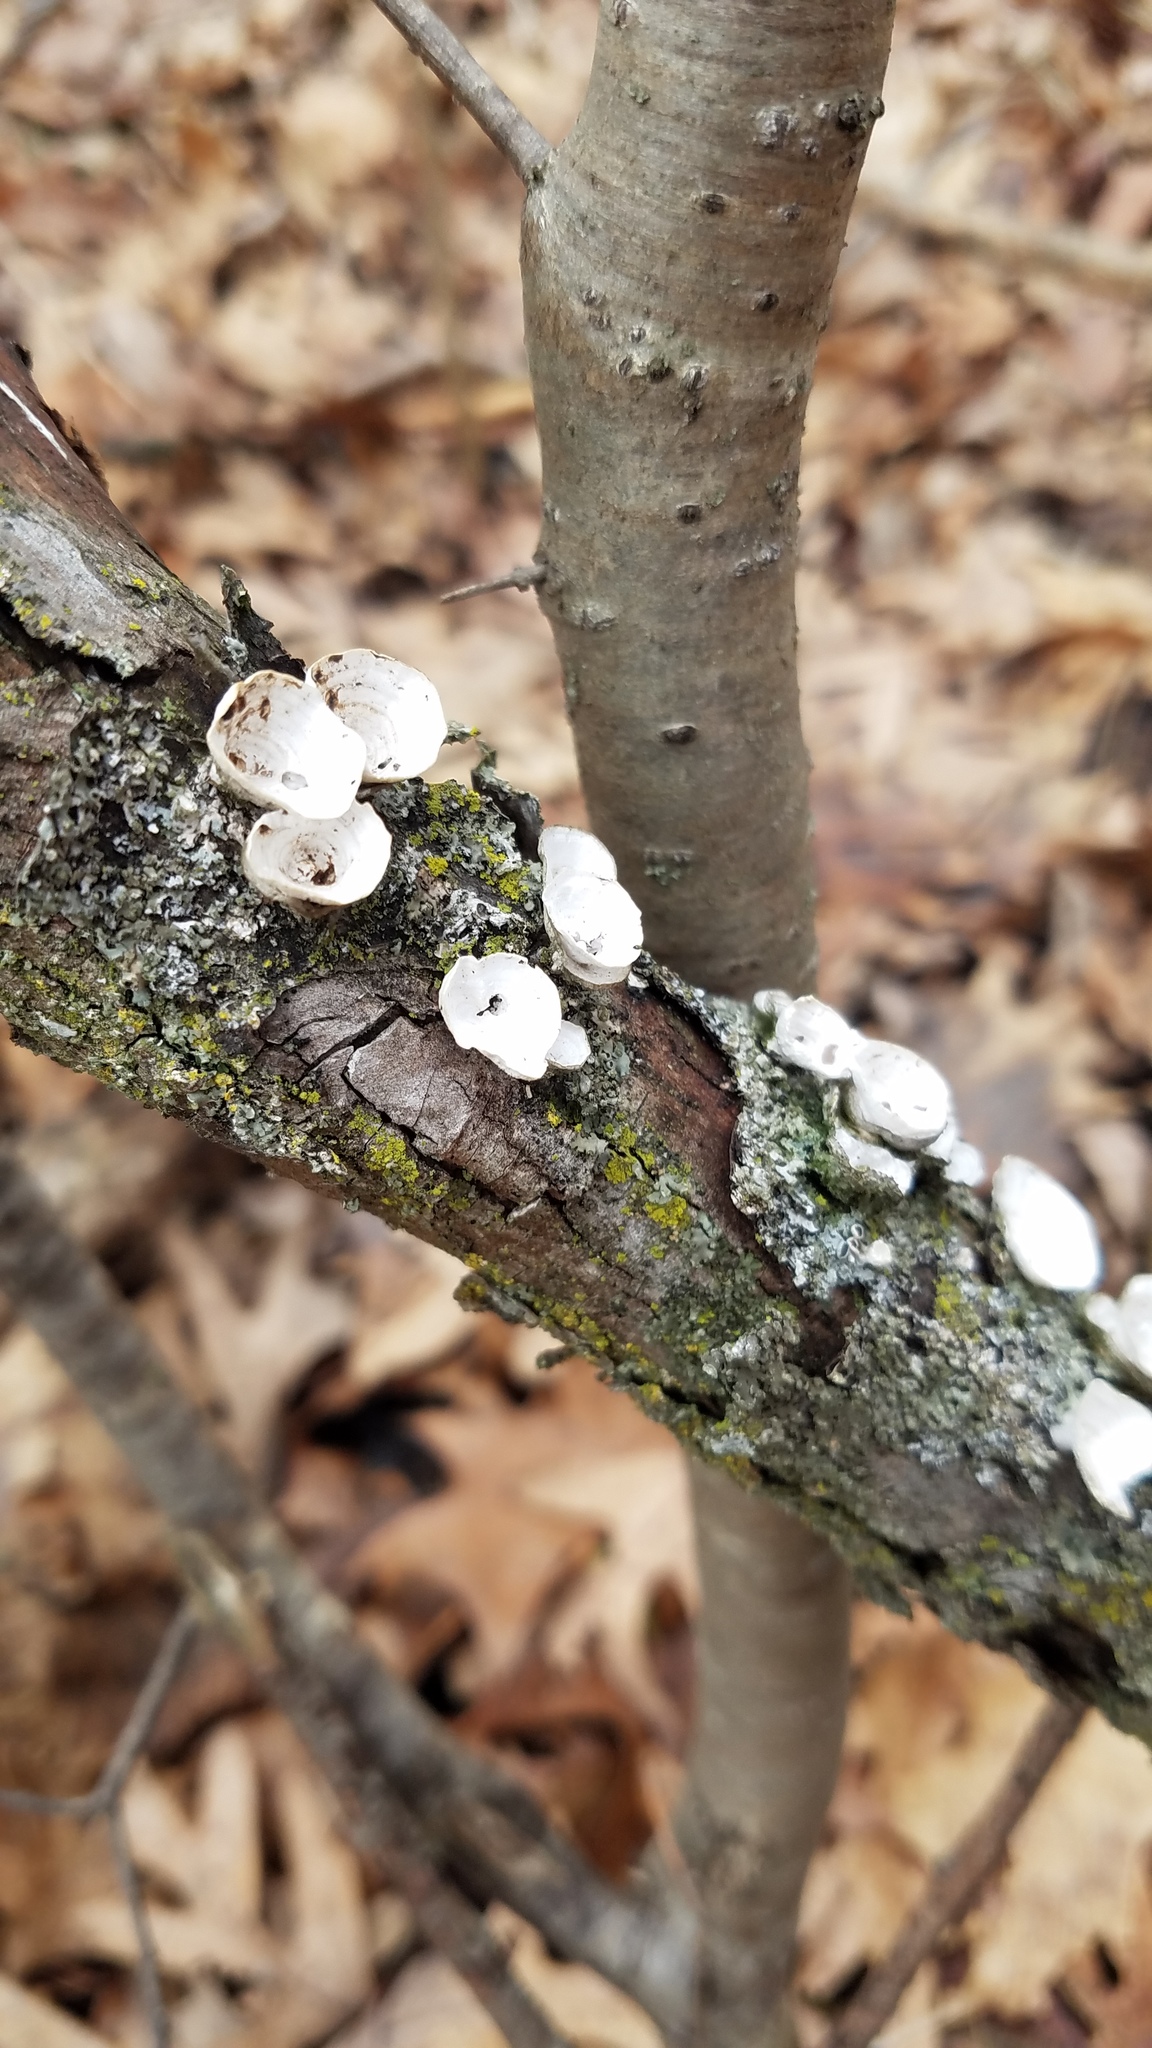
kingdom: Fungi
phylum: Basidiomycota
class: Agaricomycetes
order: Polyporales
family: Polyporaceae
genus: Poronidulus
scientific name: Poronidulus conchifer
